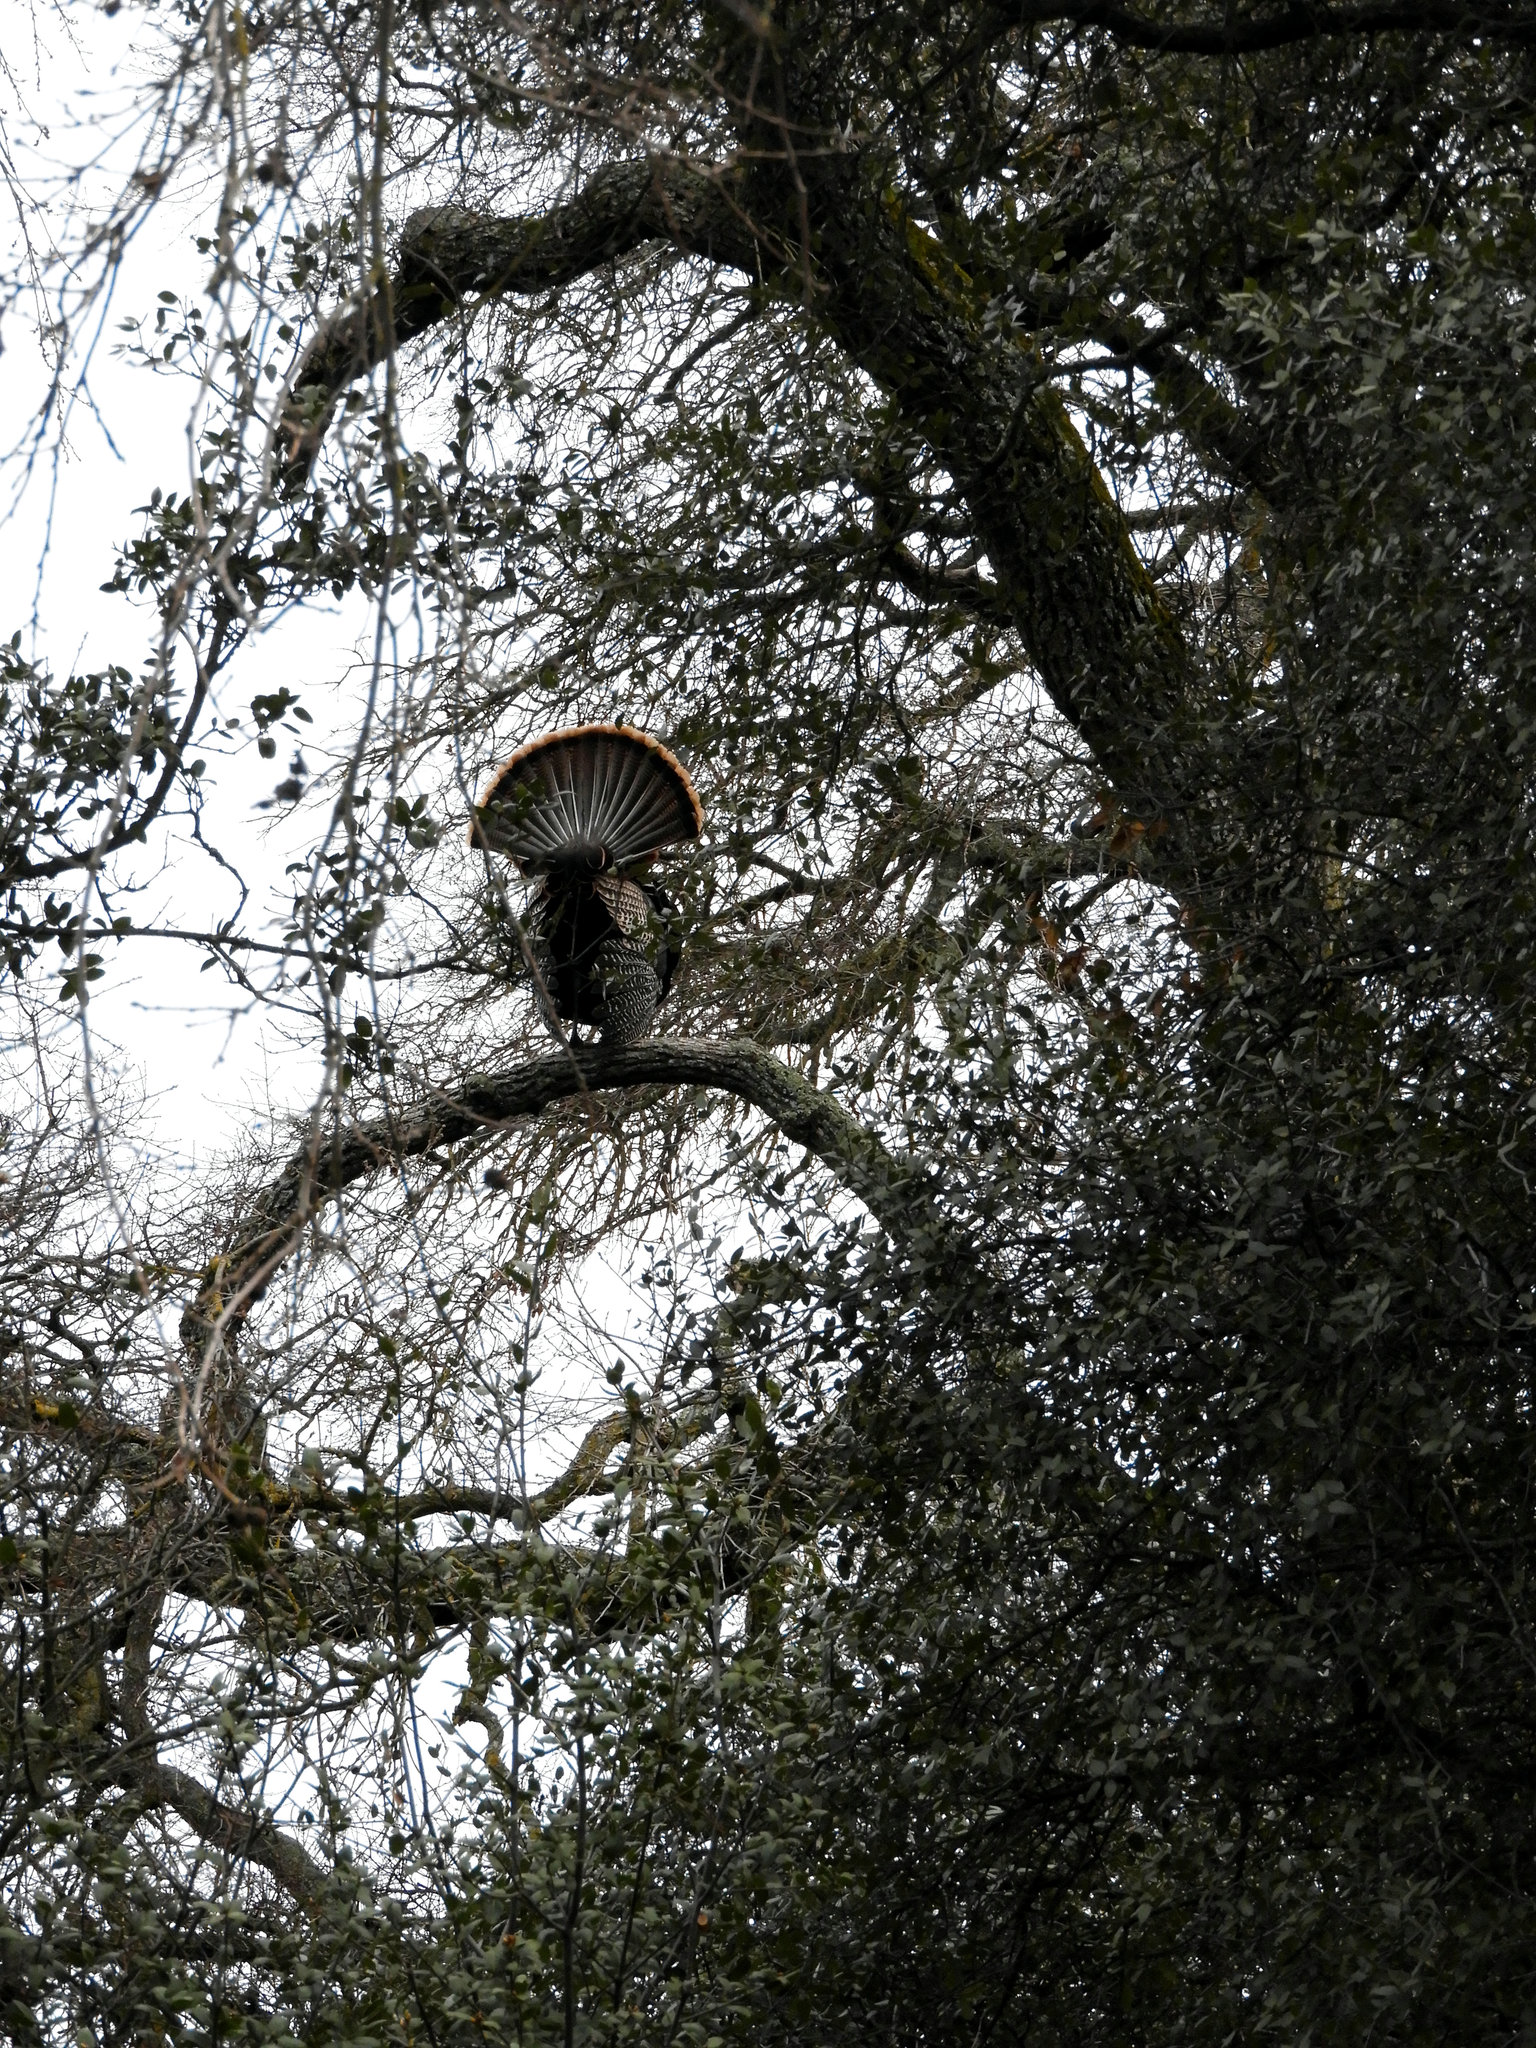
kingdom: Animalia
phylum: Chordata
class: Aves
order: Galliformes
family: Phasianidae
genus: Meleagris
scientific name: Meleagris gallopavo
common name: Wild turkey
